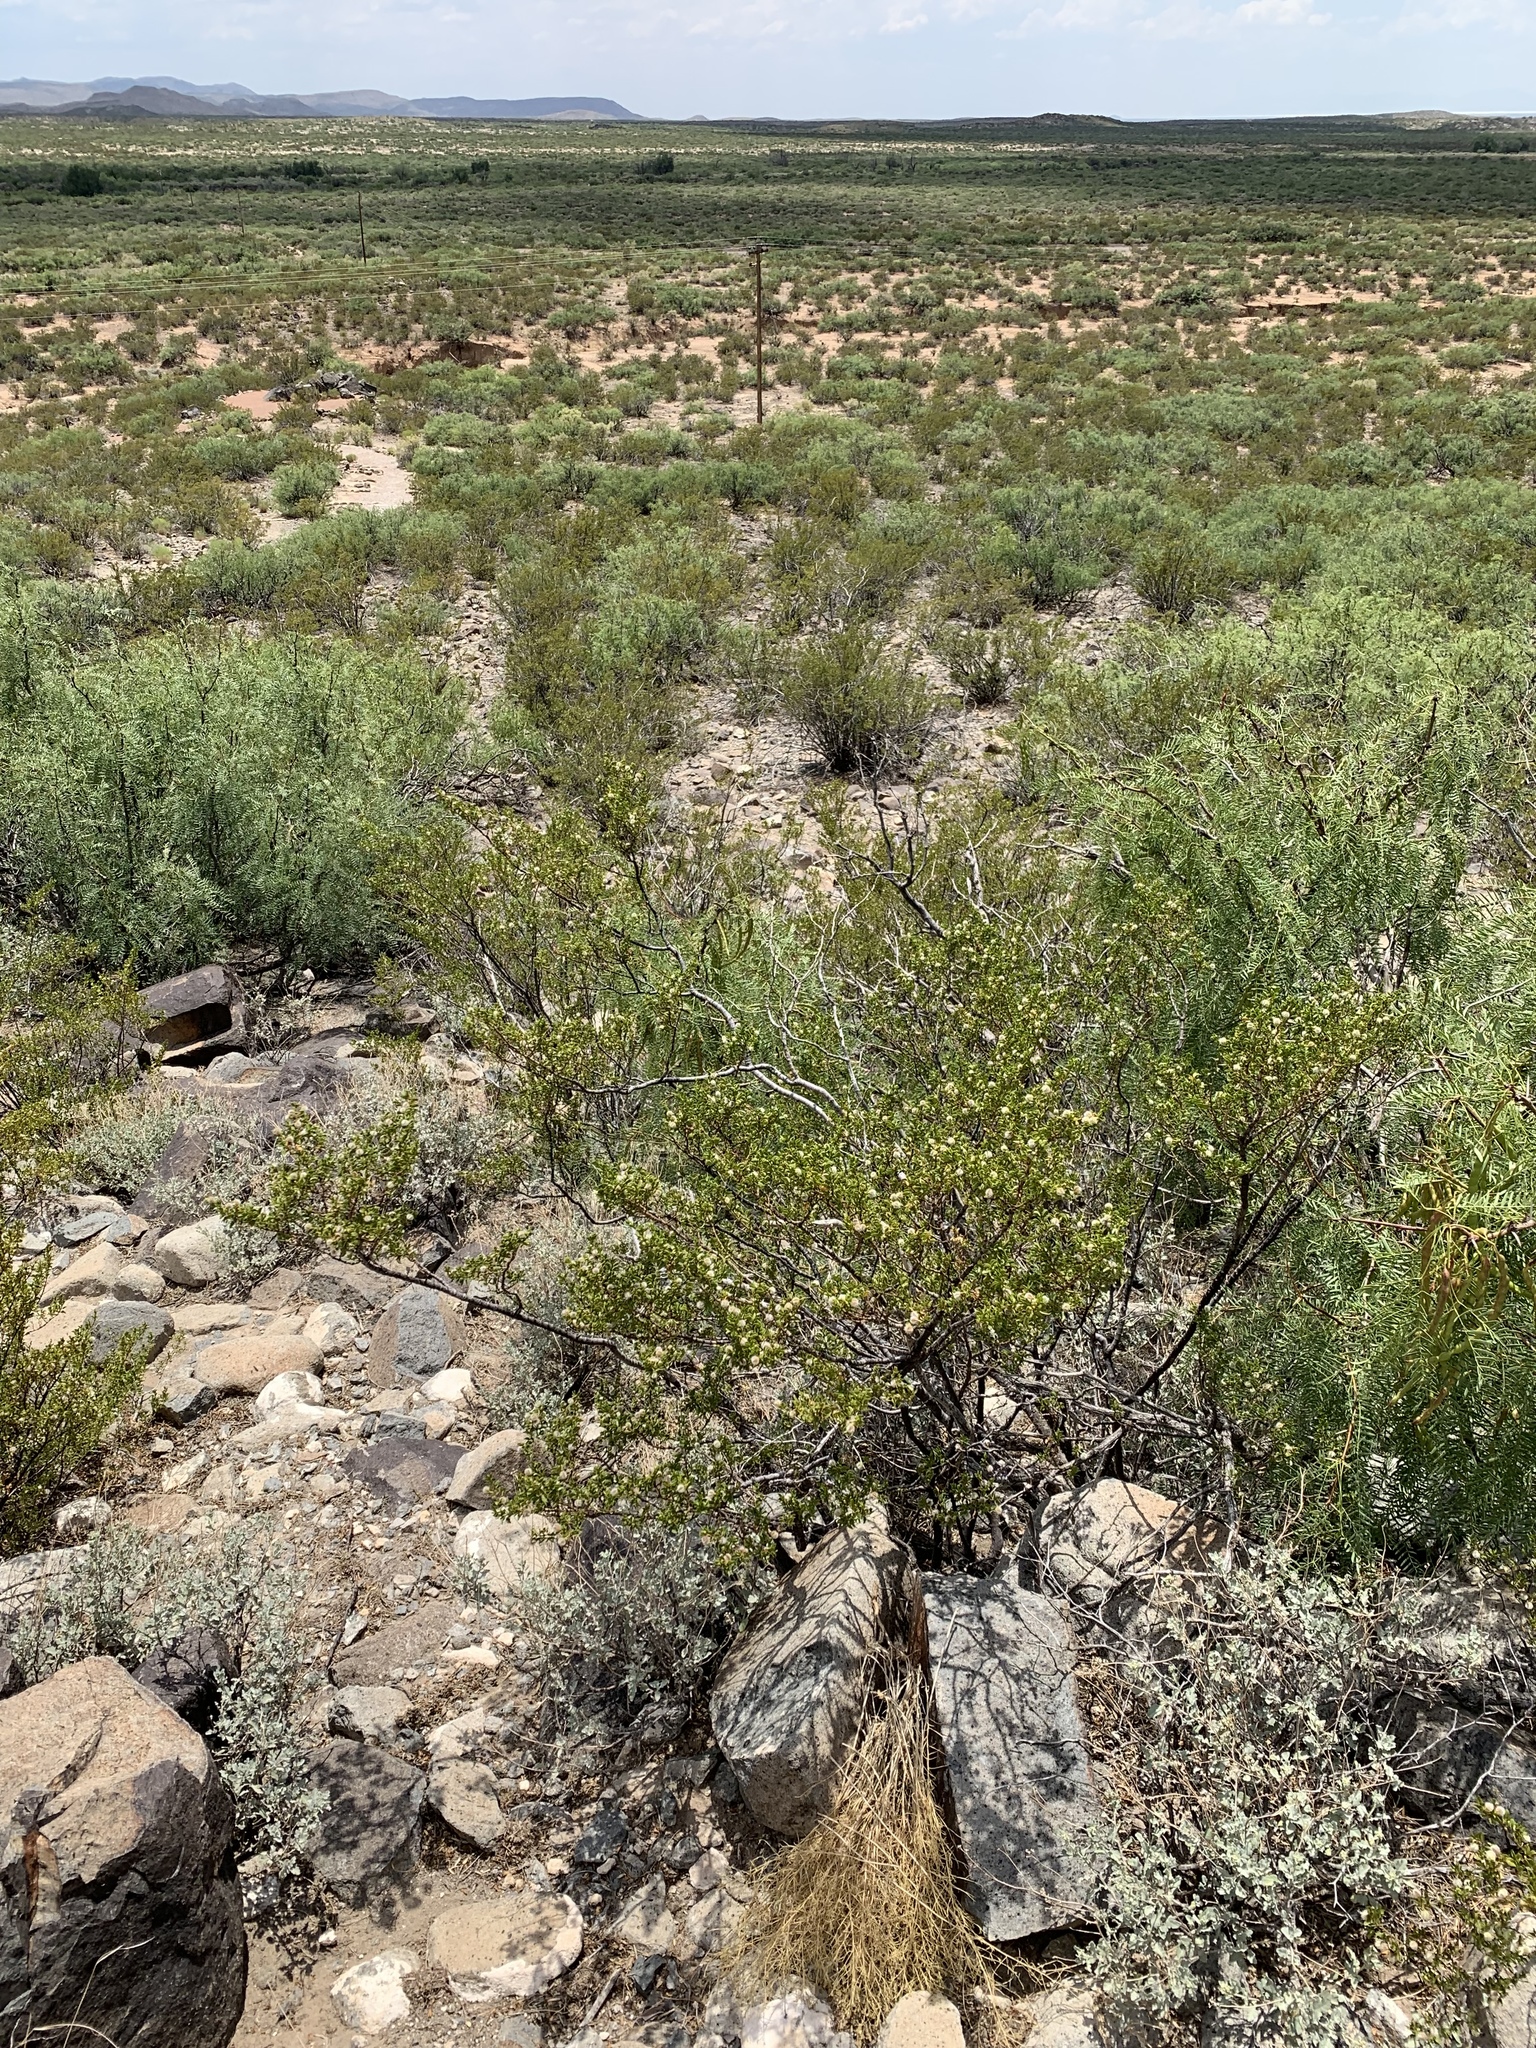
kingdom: Plantae
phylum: Tracheophyta
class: Magnoliopsida
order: Zygophyllales
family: Zygophyllaceae
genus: Larrea
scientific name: Larrea tridentata
